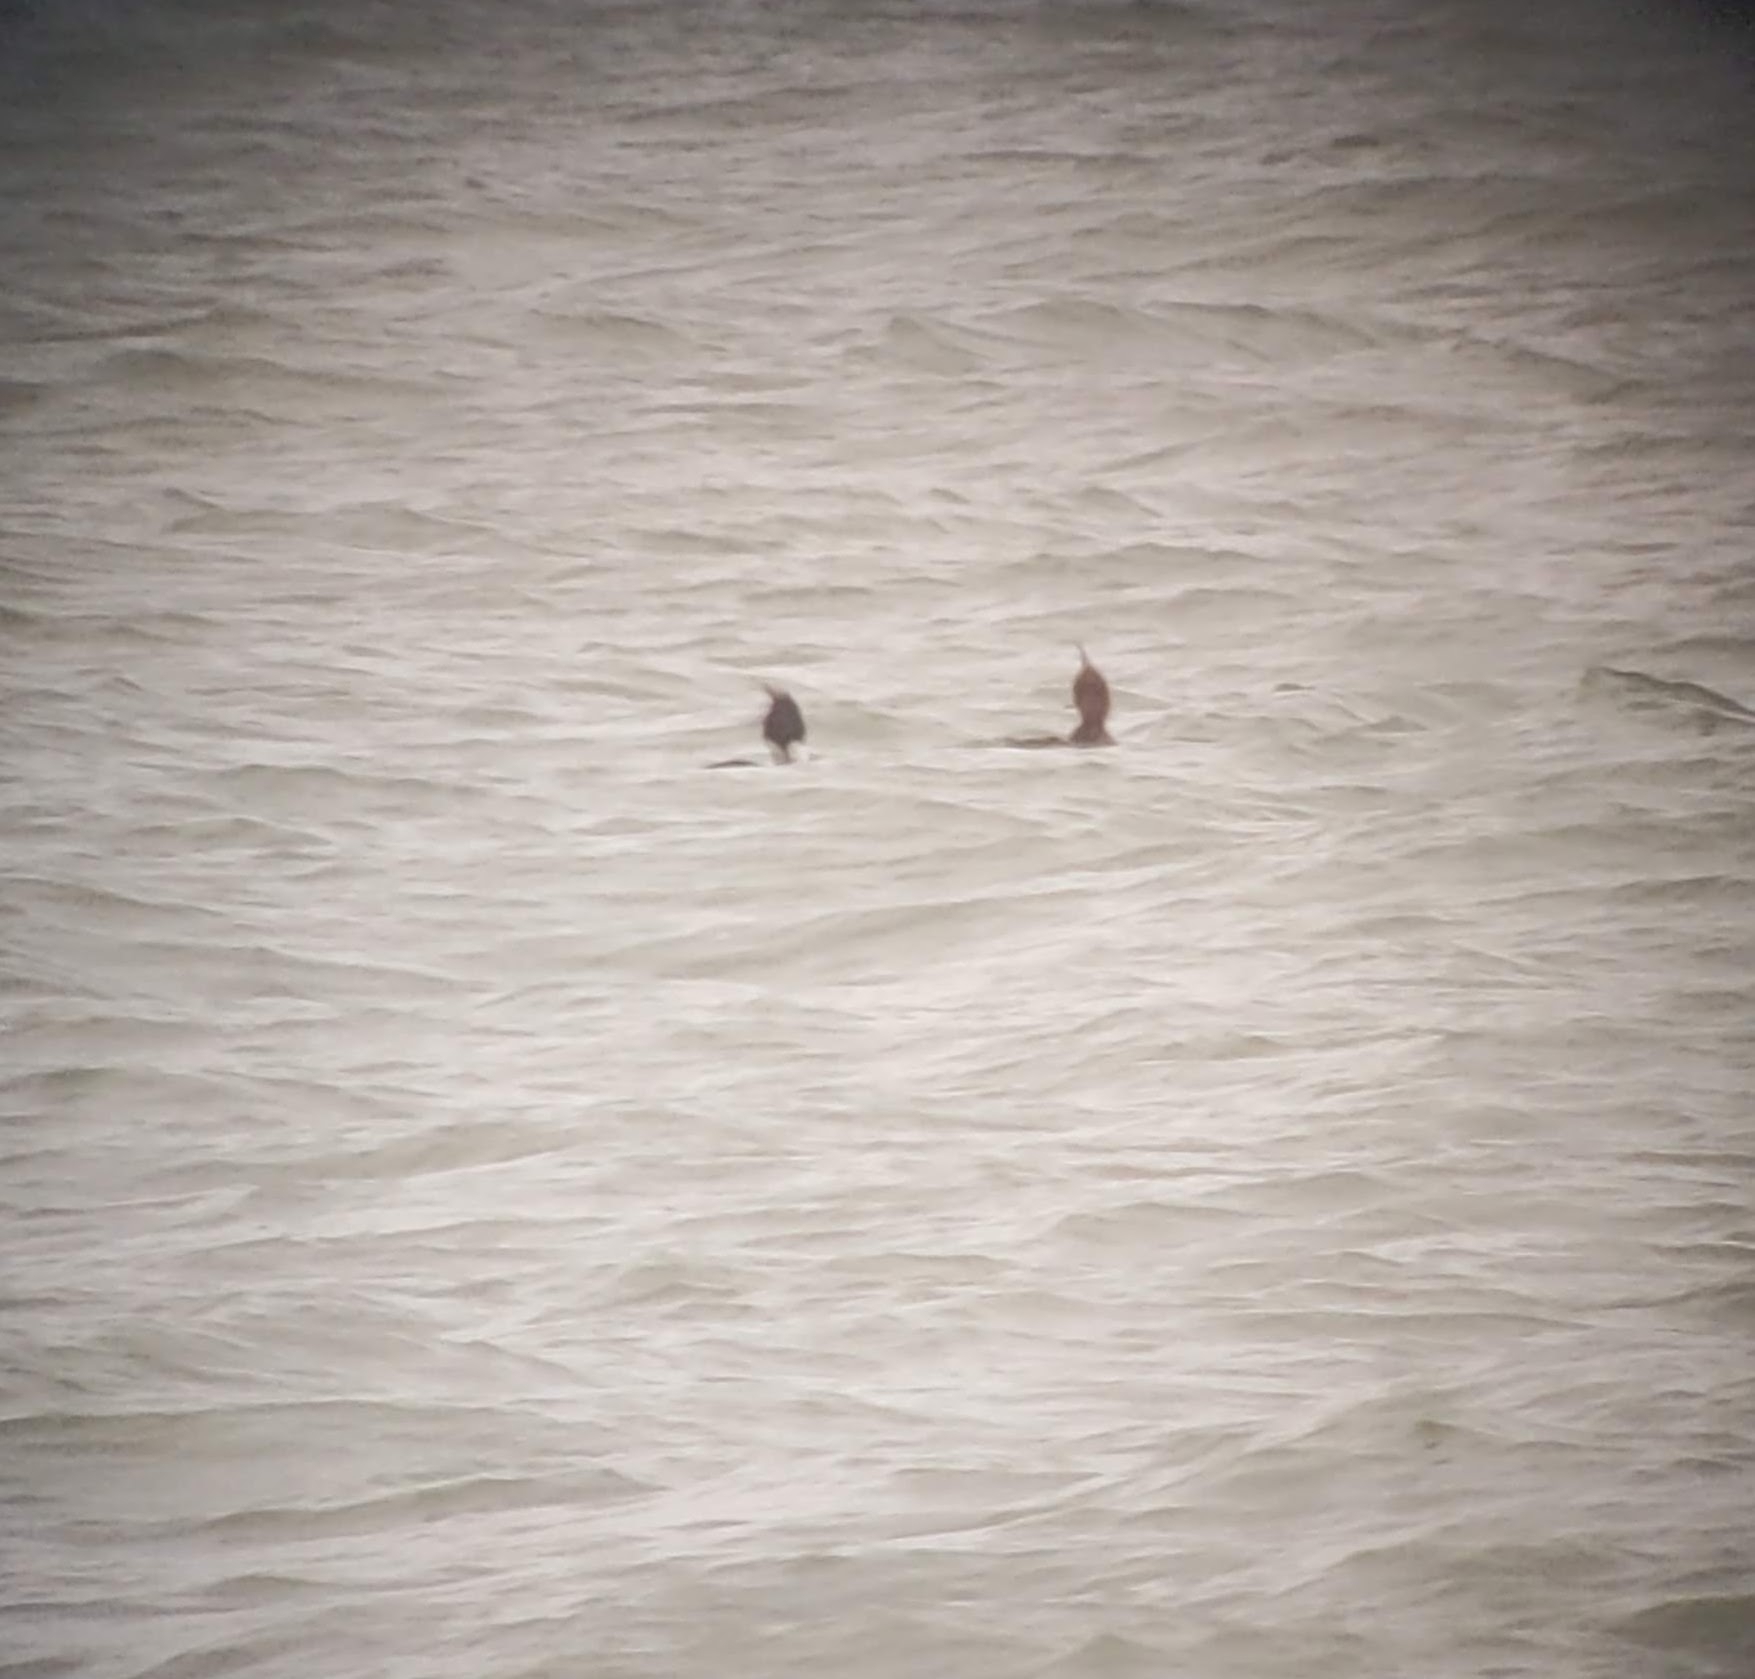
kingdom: Animalia
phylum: Chordata
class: Aves
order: Anseriformes
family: Anatidae
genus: Mergus
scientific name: Mergus serrator
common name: Red-breasted merganser
